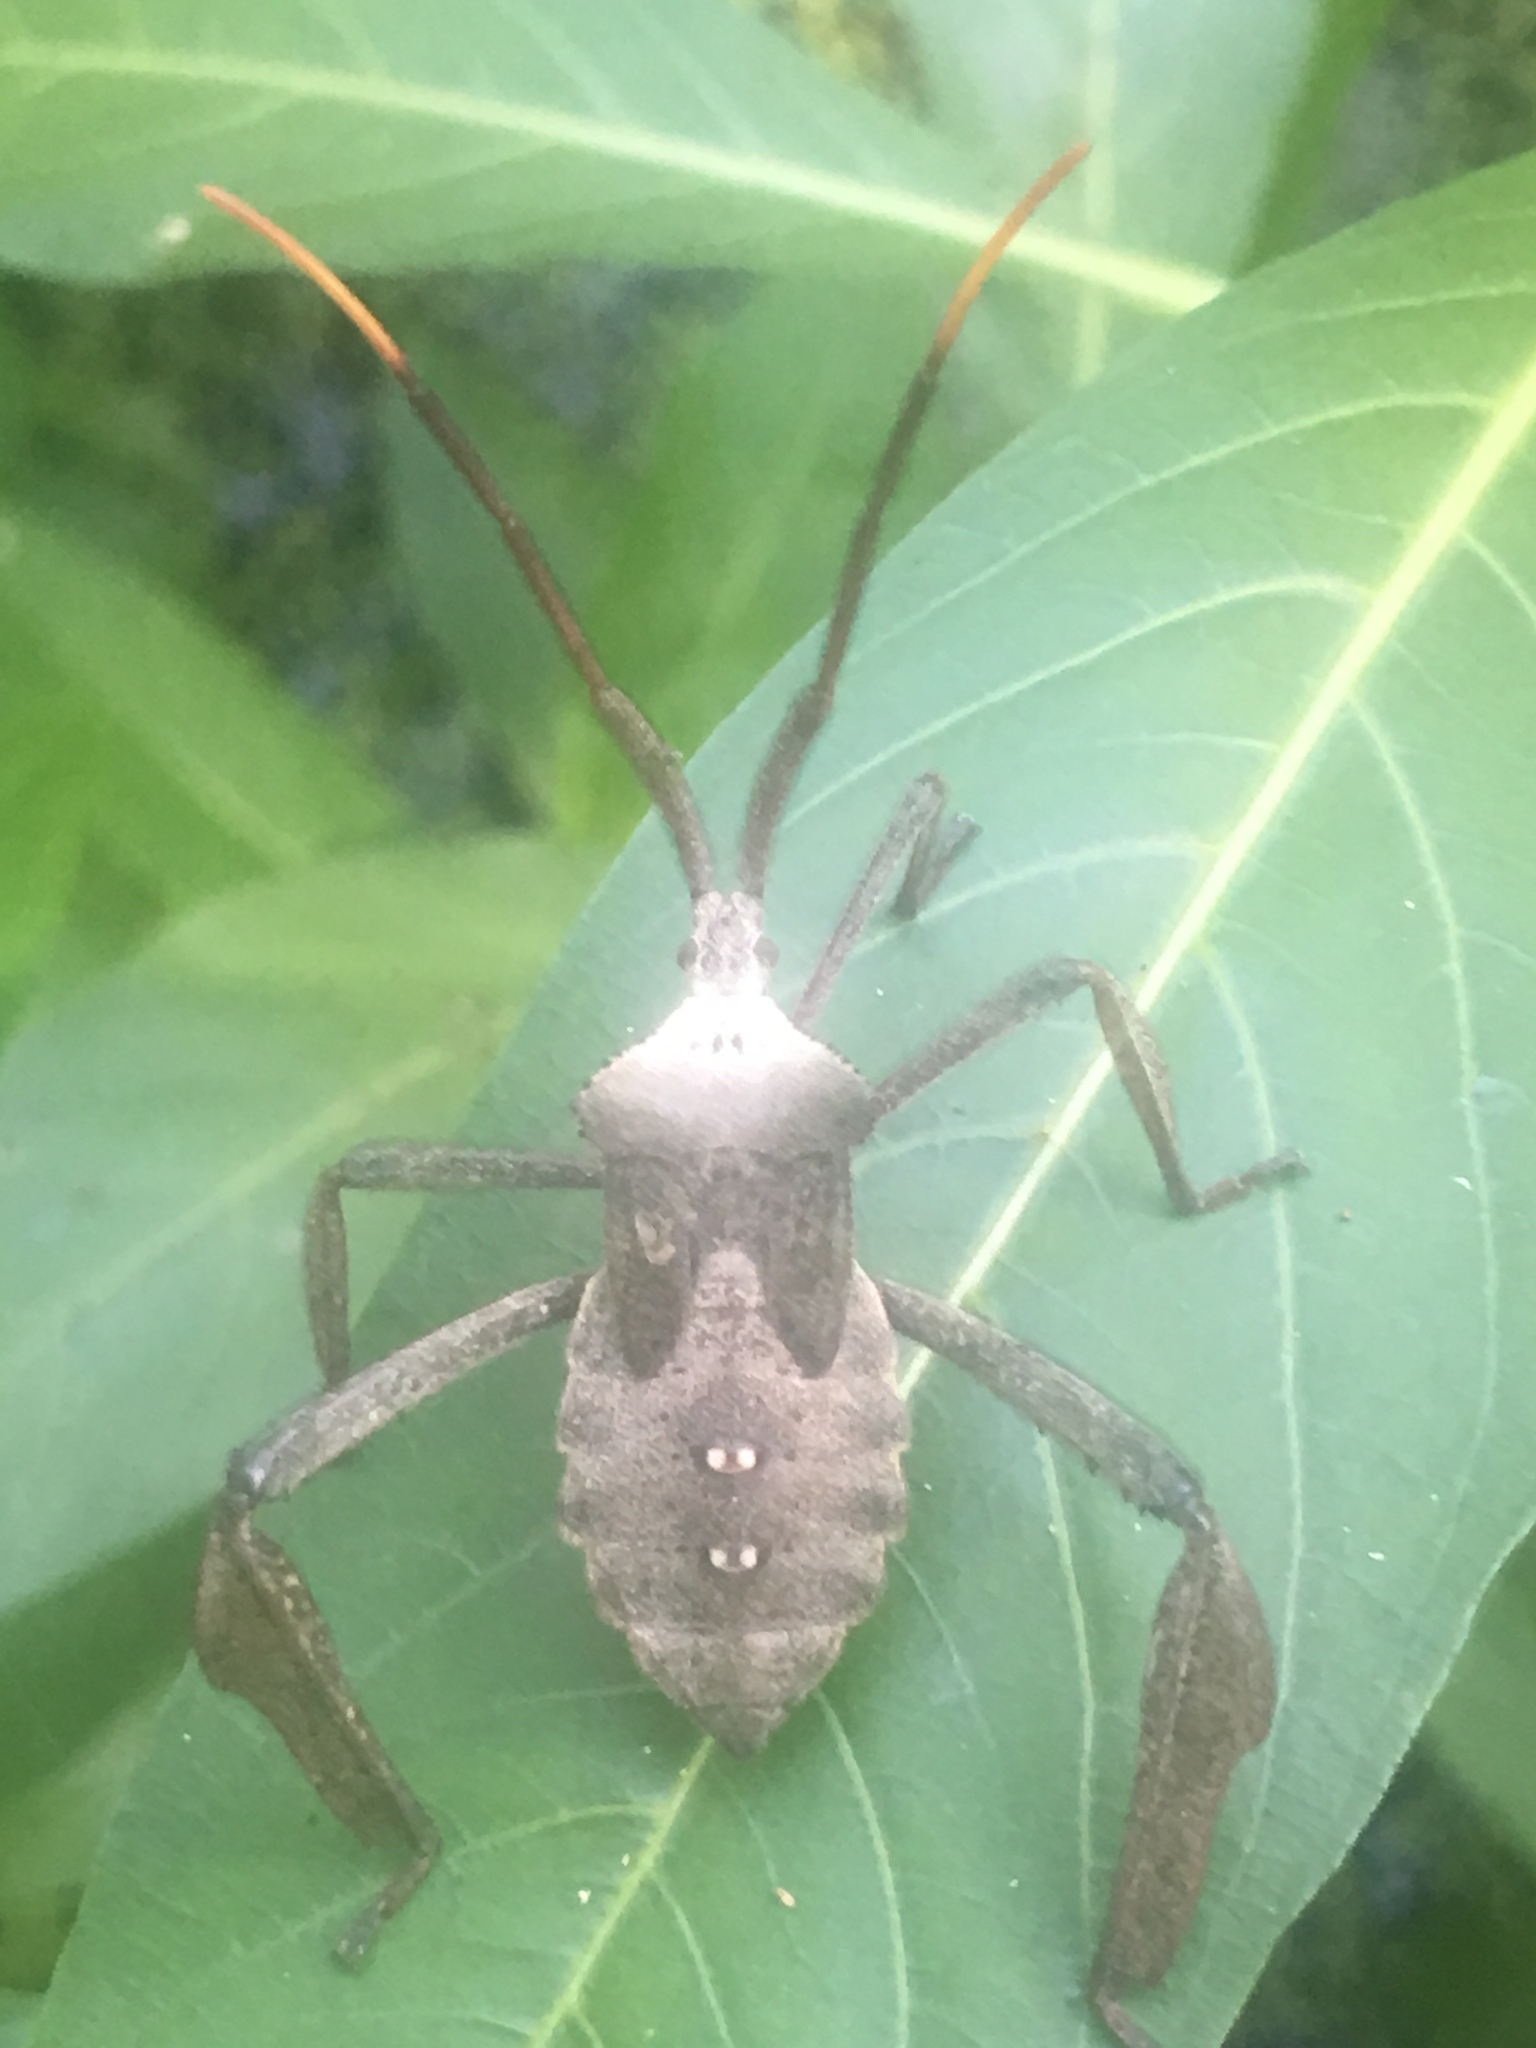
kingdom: Animalia
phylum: Arthropoda
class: Insecta
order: Hemiptera
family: Coreidae
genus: Acanthocephala
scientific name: Acanthocephala declivis
